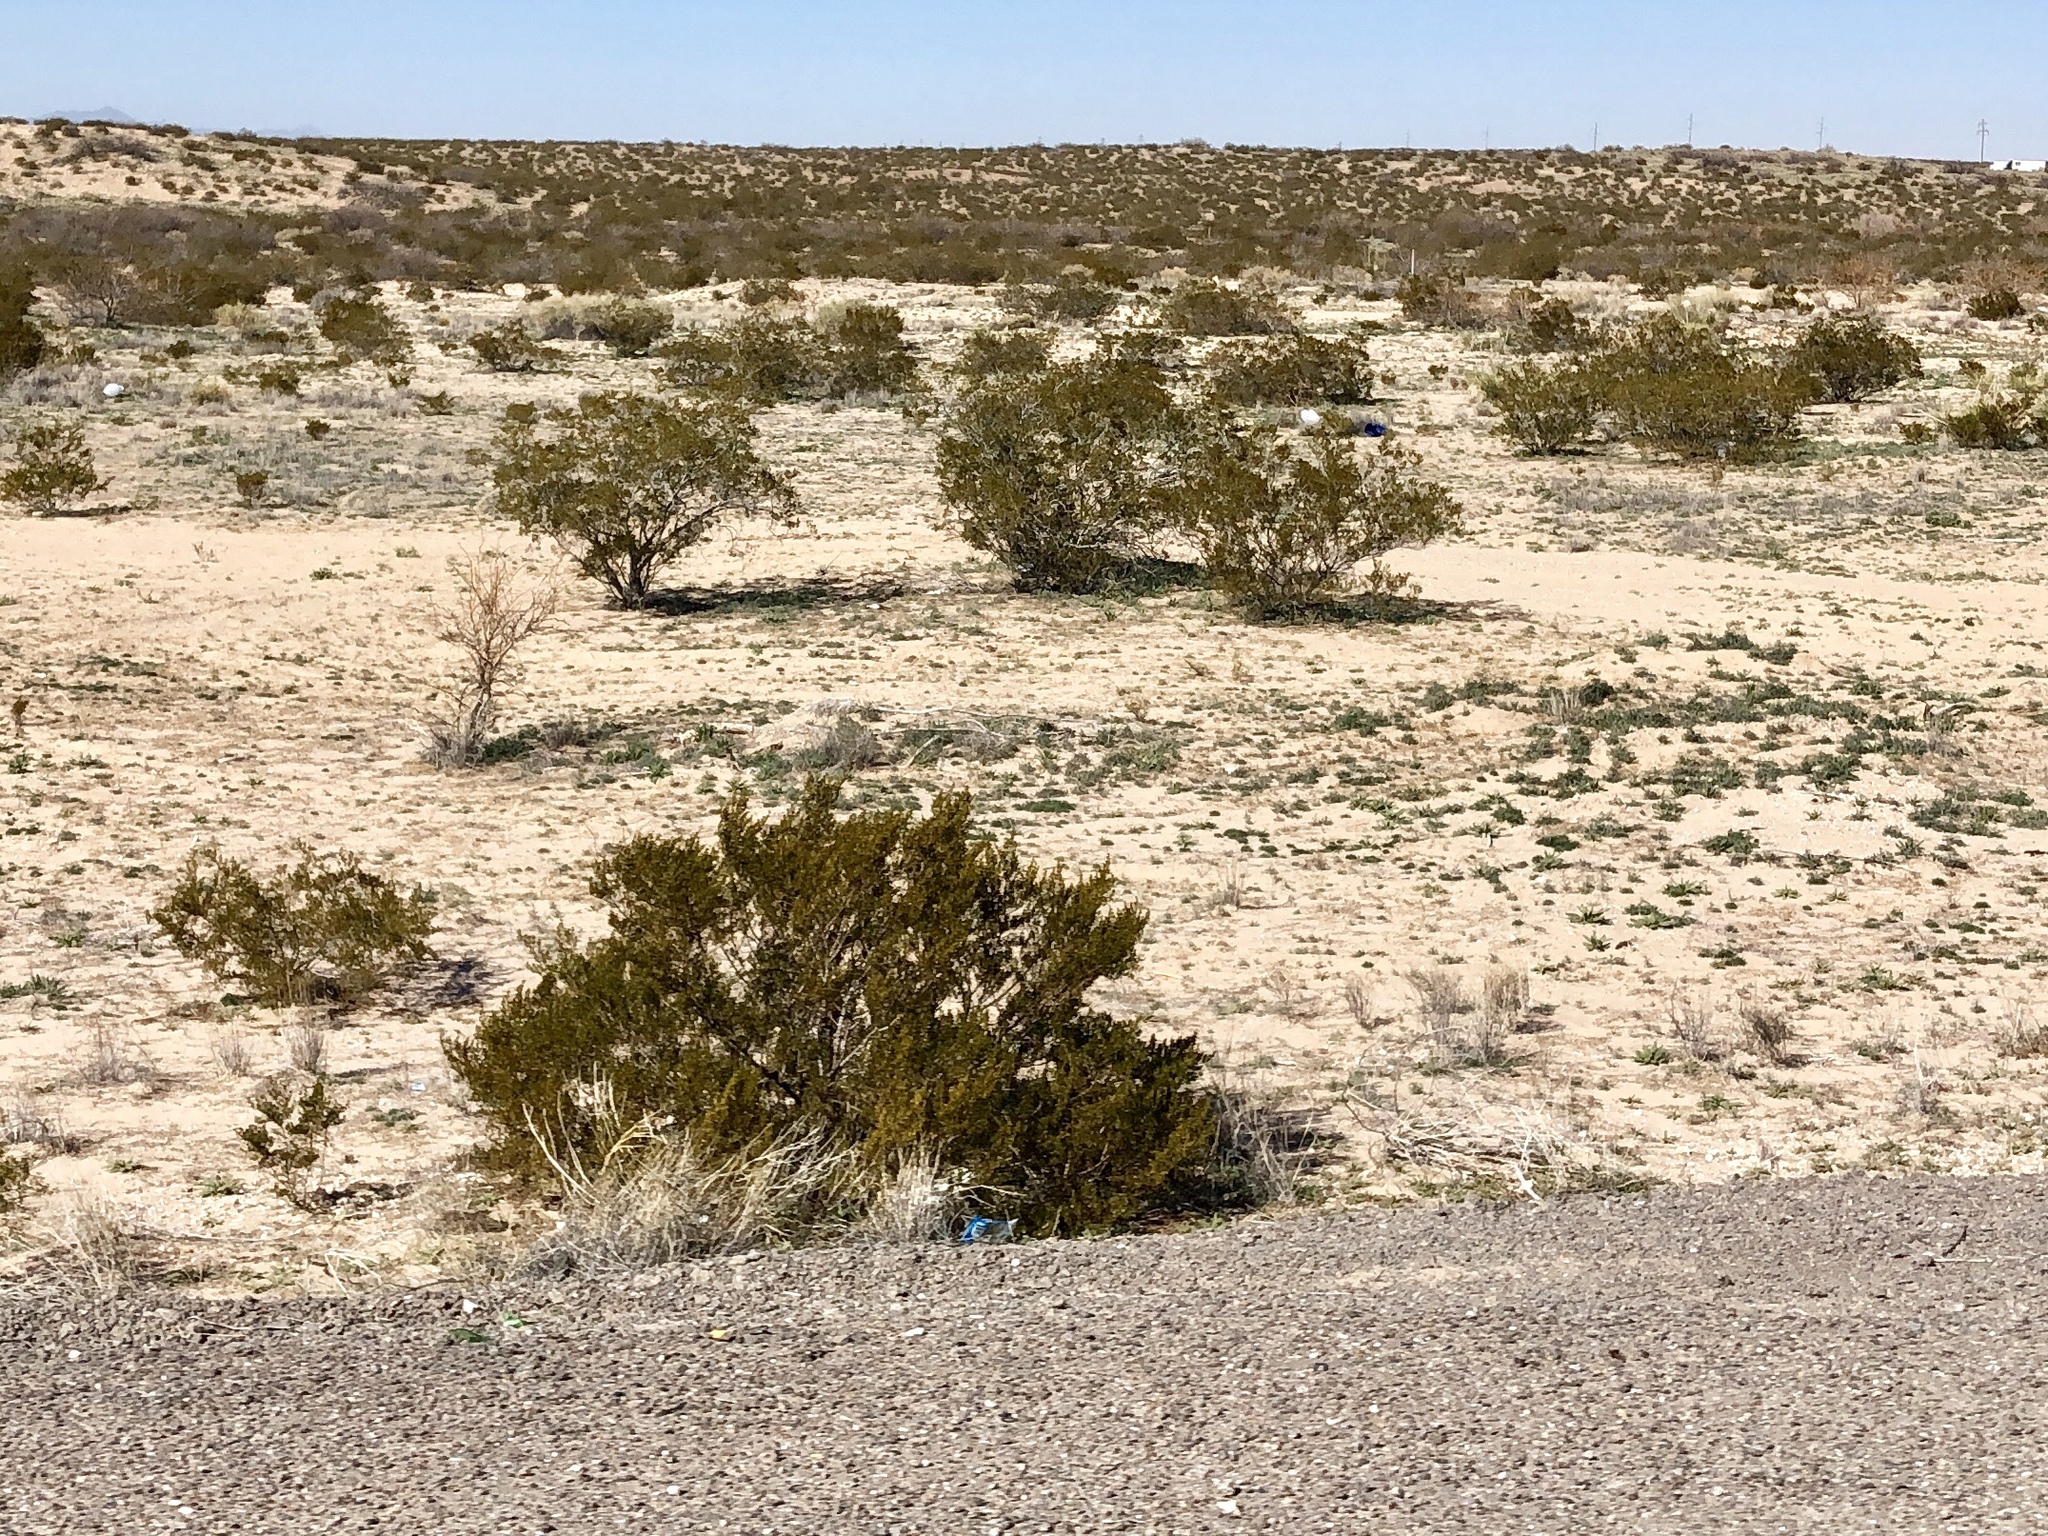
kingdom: Plantae
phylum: Tracheophyta
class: Magnoliopsida
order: Zygophyllales
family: Zygophyllaceae
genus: Larrea
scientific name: Larrea tridentata
